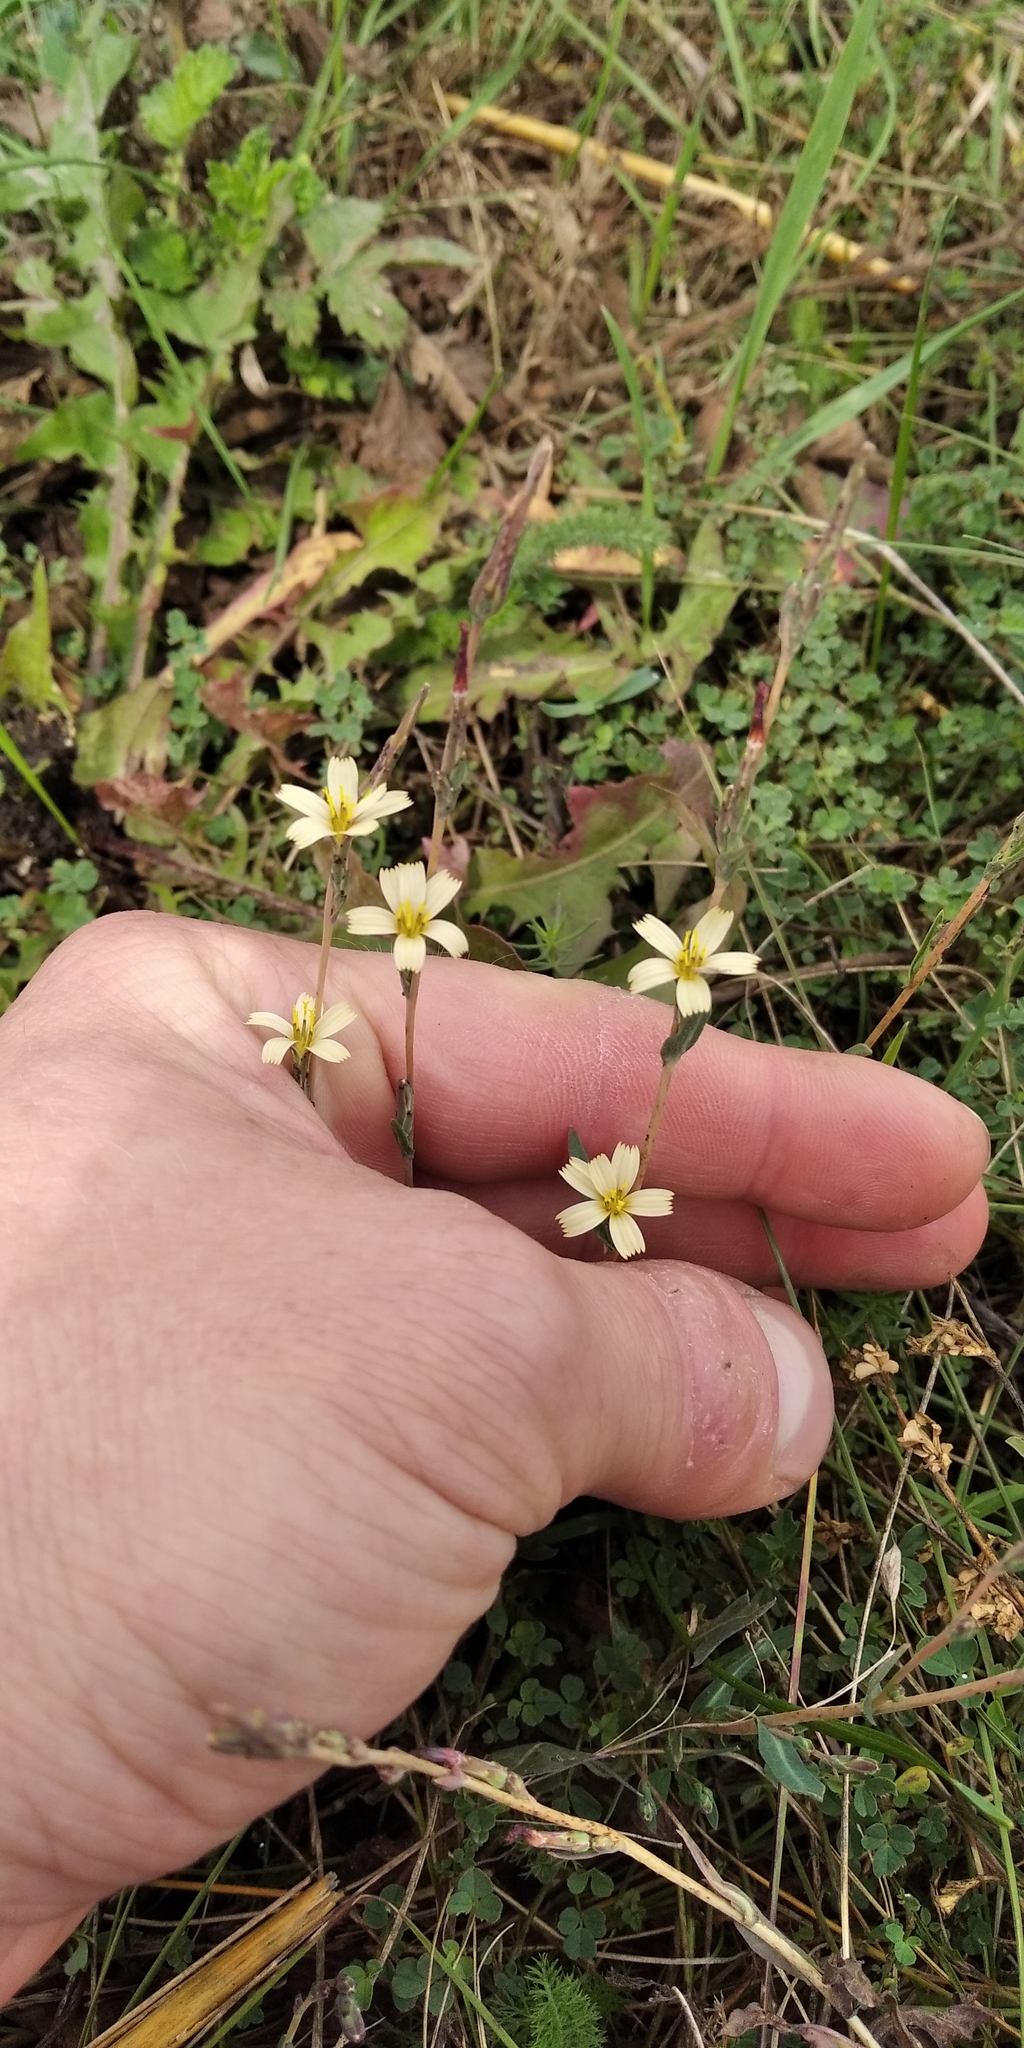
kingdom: Plantae
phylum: Tracheophyta
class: Magnoliopsida
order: Asterales
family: Asteraceae
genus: Lactuca
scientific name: Lactuca saligna
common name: Wild lettuce
